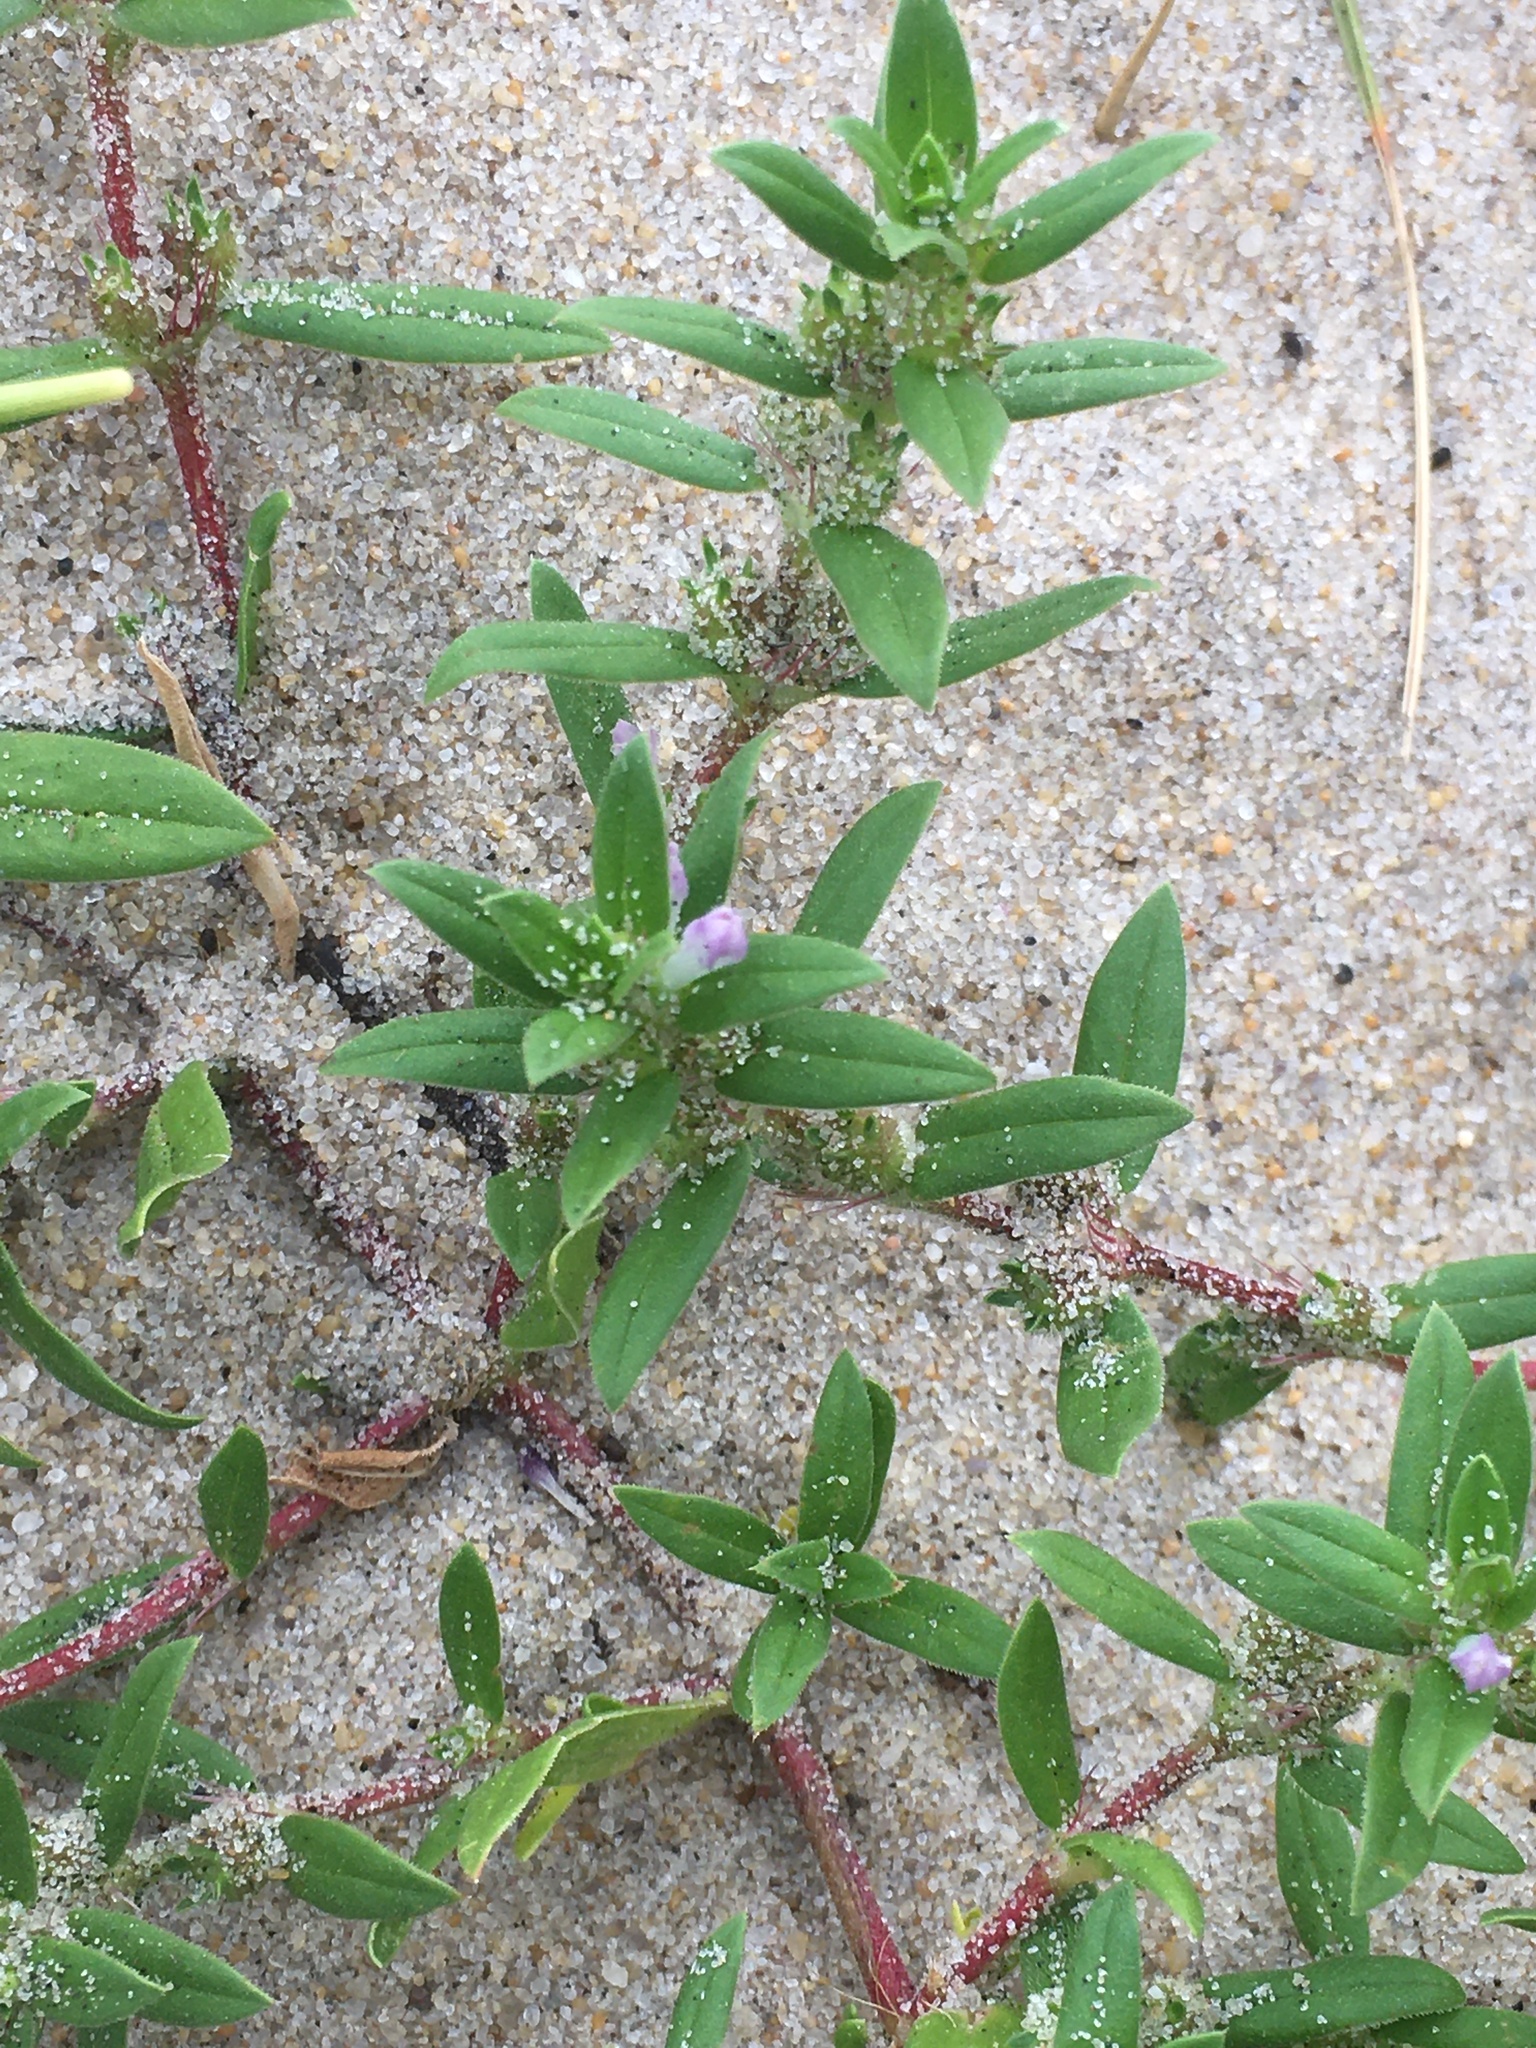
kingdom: Plantae
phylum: Tracheophyta
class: Magnoliopsida
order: Gentianales
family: Rubiaceae
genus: Hexasepalum
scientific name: Hexasepalum teres
